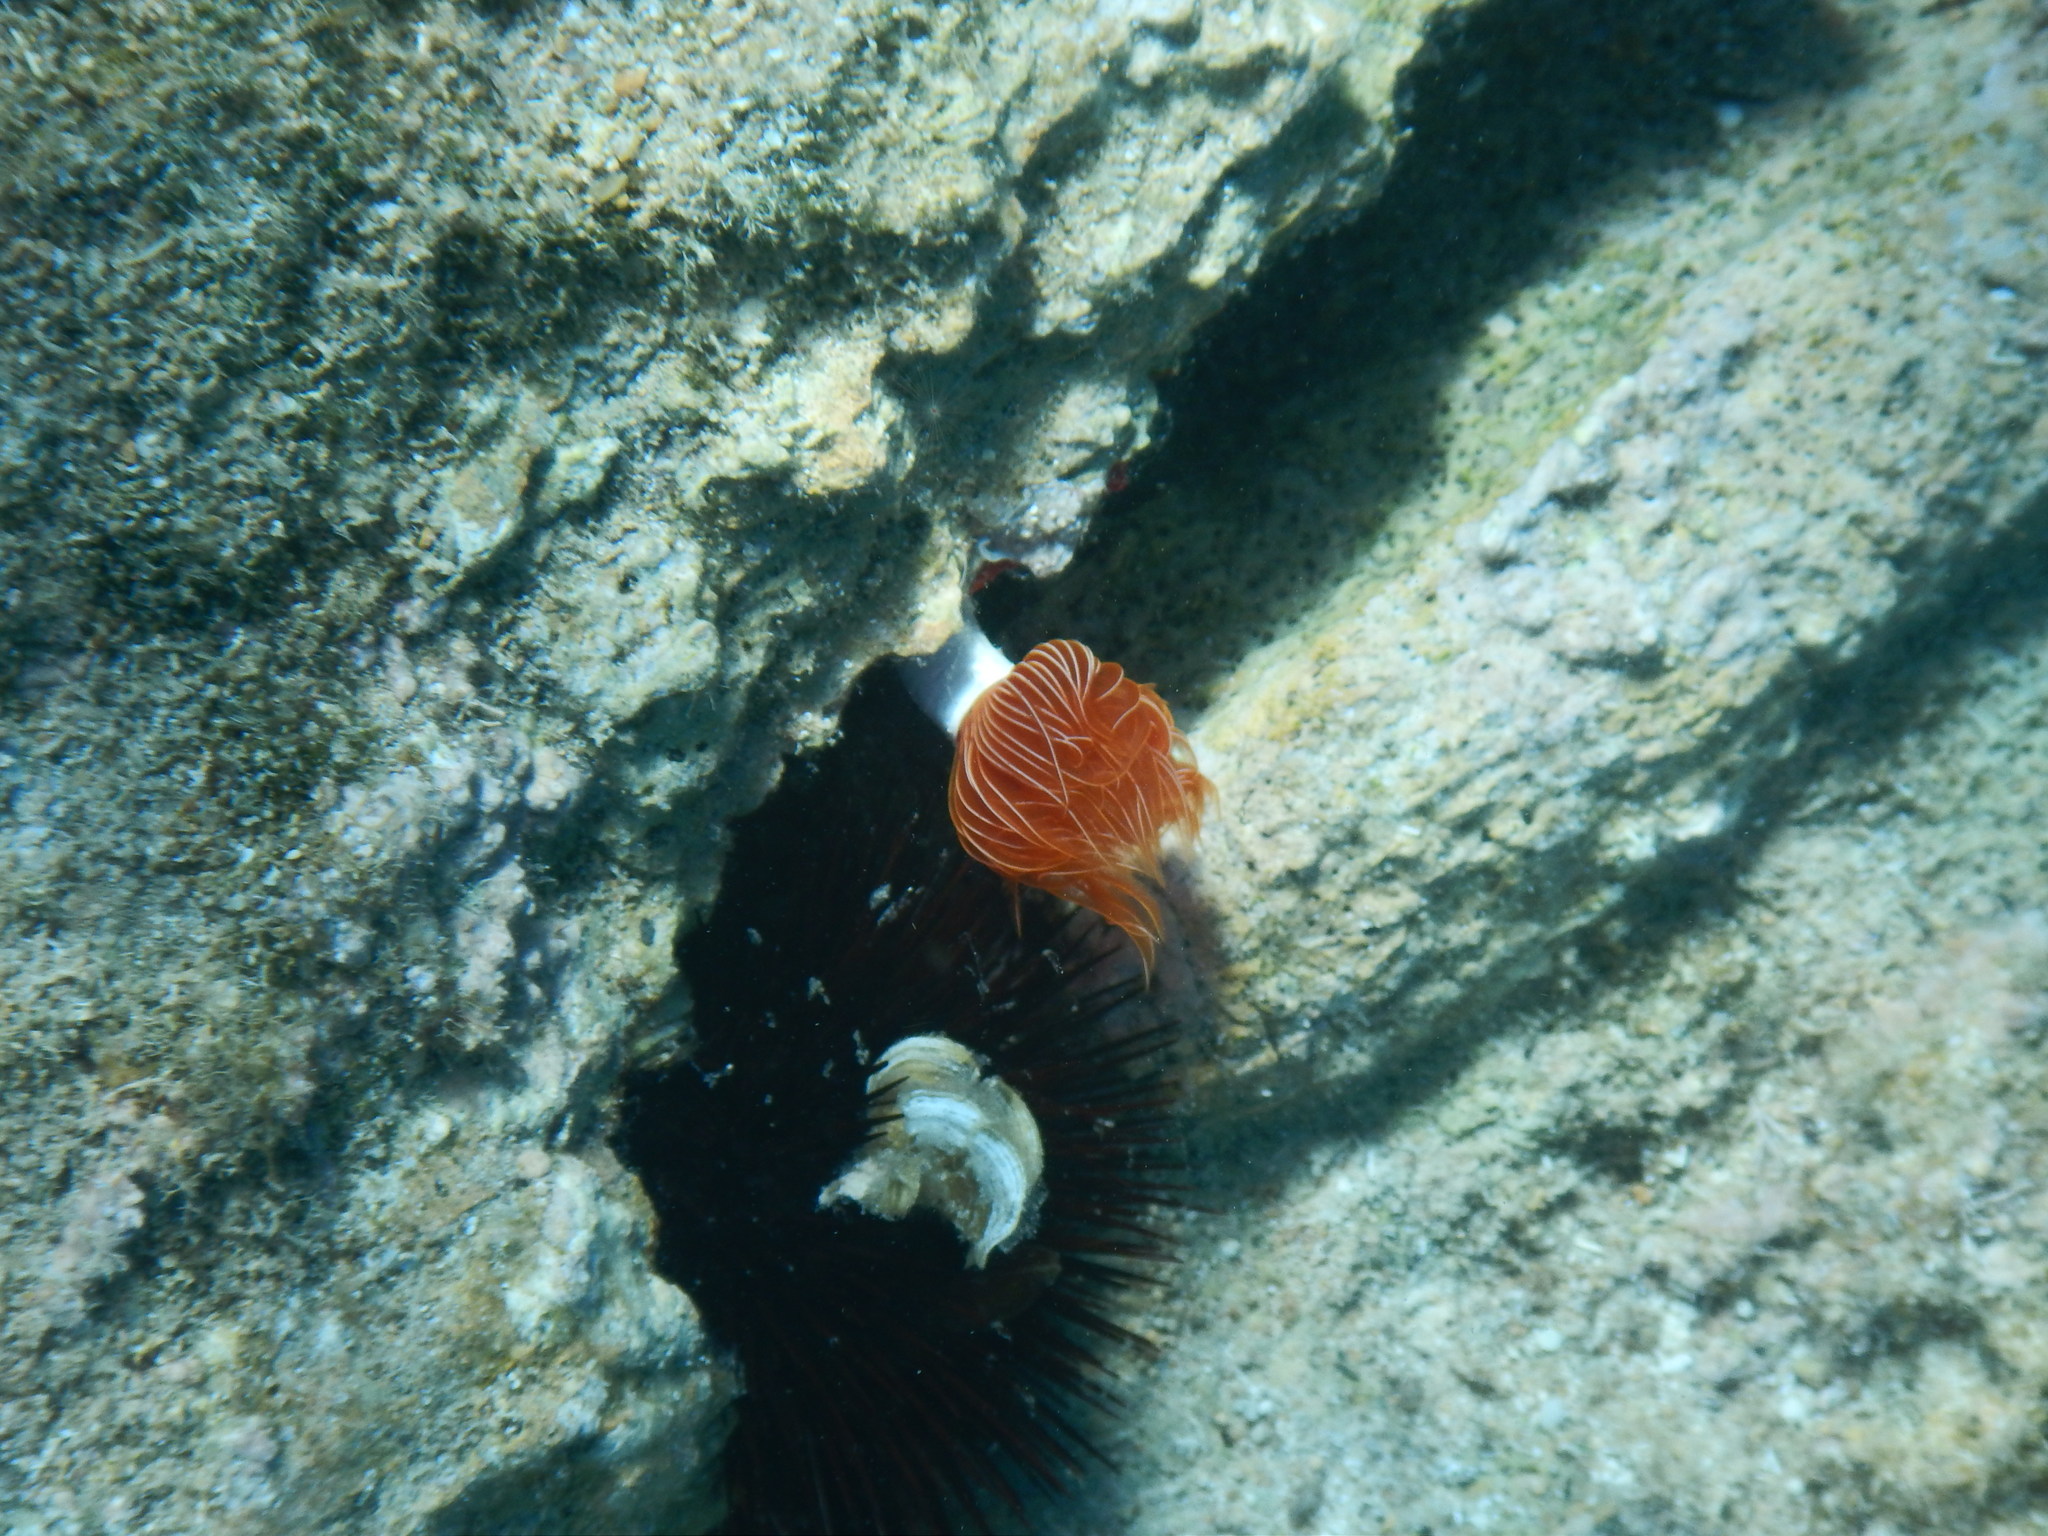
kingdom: Animalia
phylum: Annelida
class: Polychaeta
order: Sabellida
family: Serpulidae
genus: Protula
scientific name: Protula tubularia
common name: Red-spotted horseshoe
